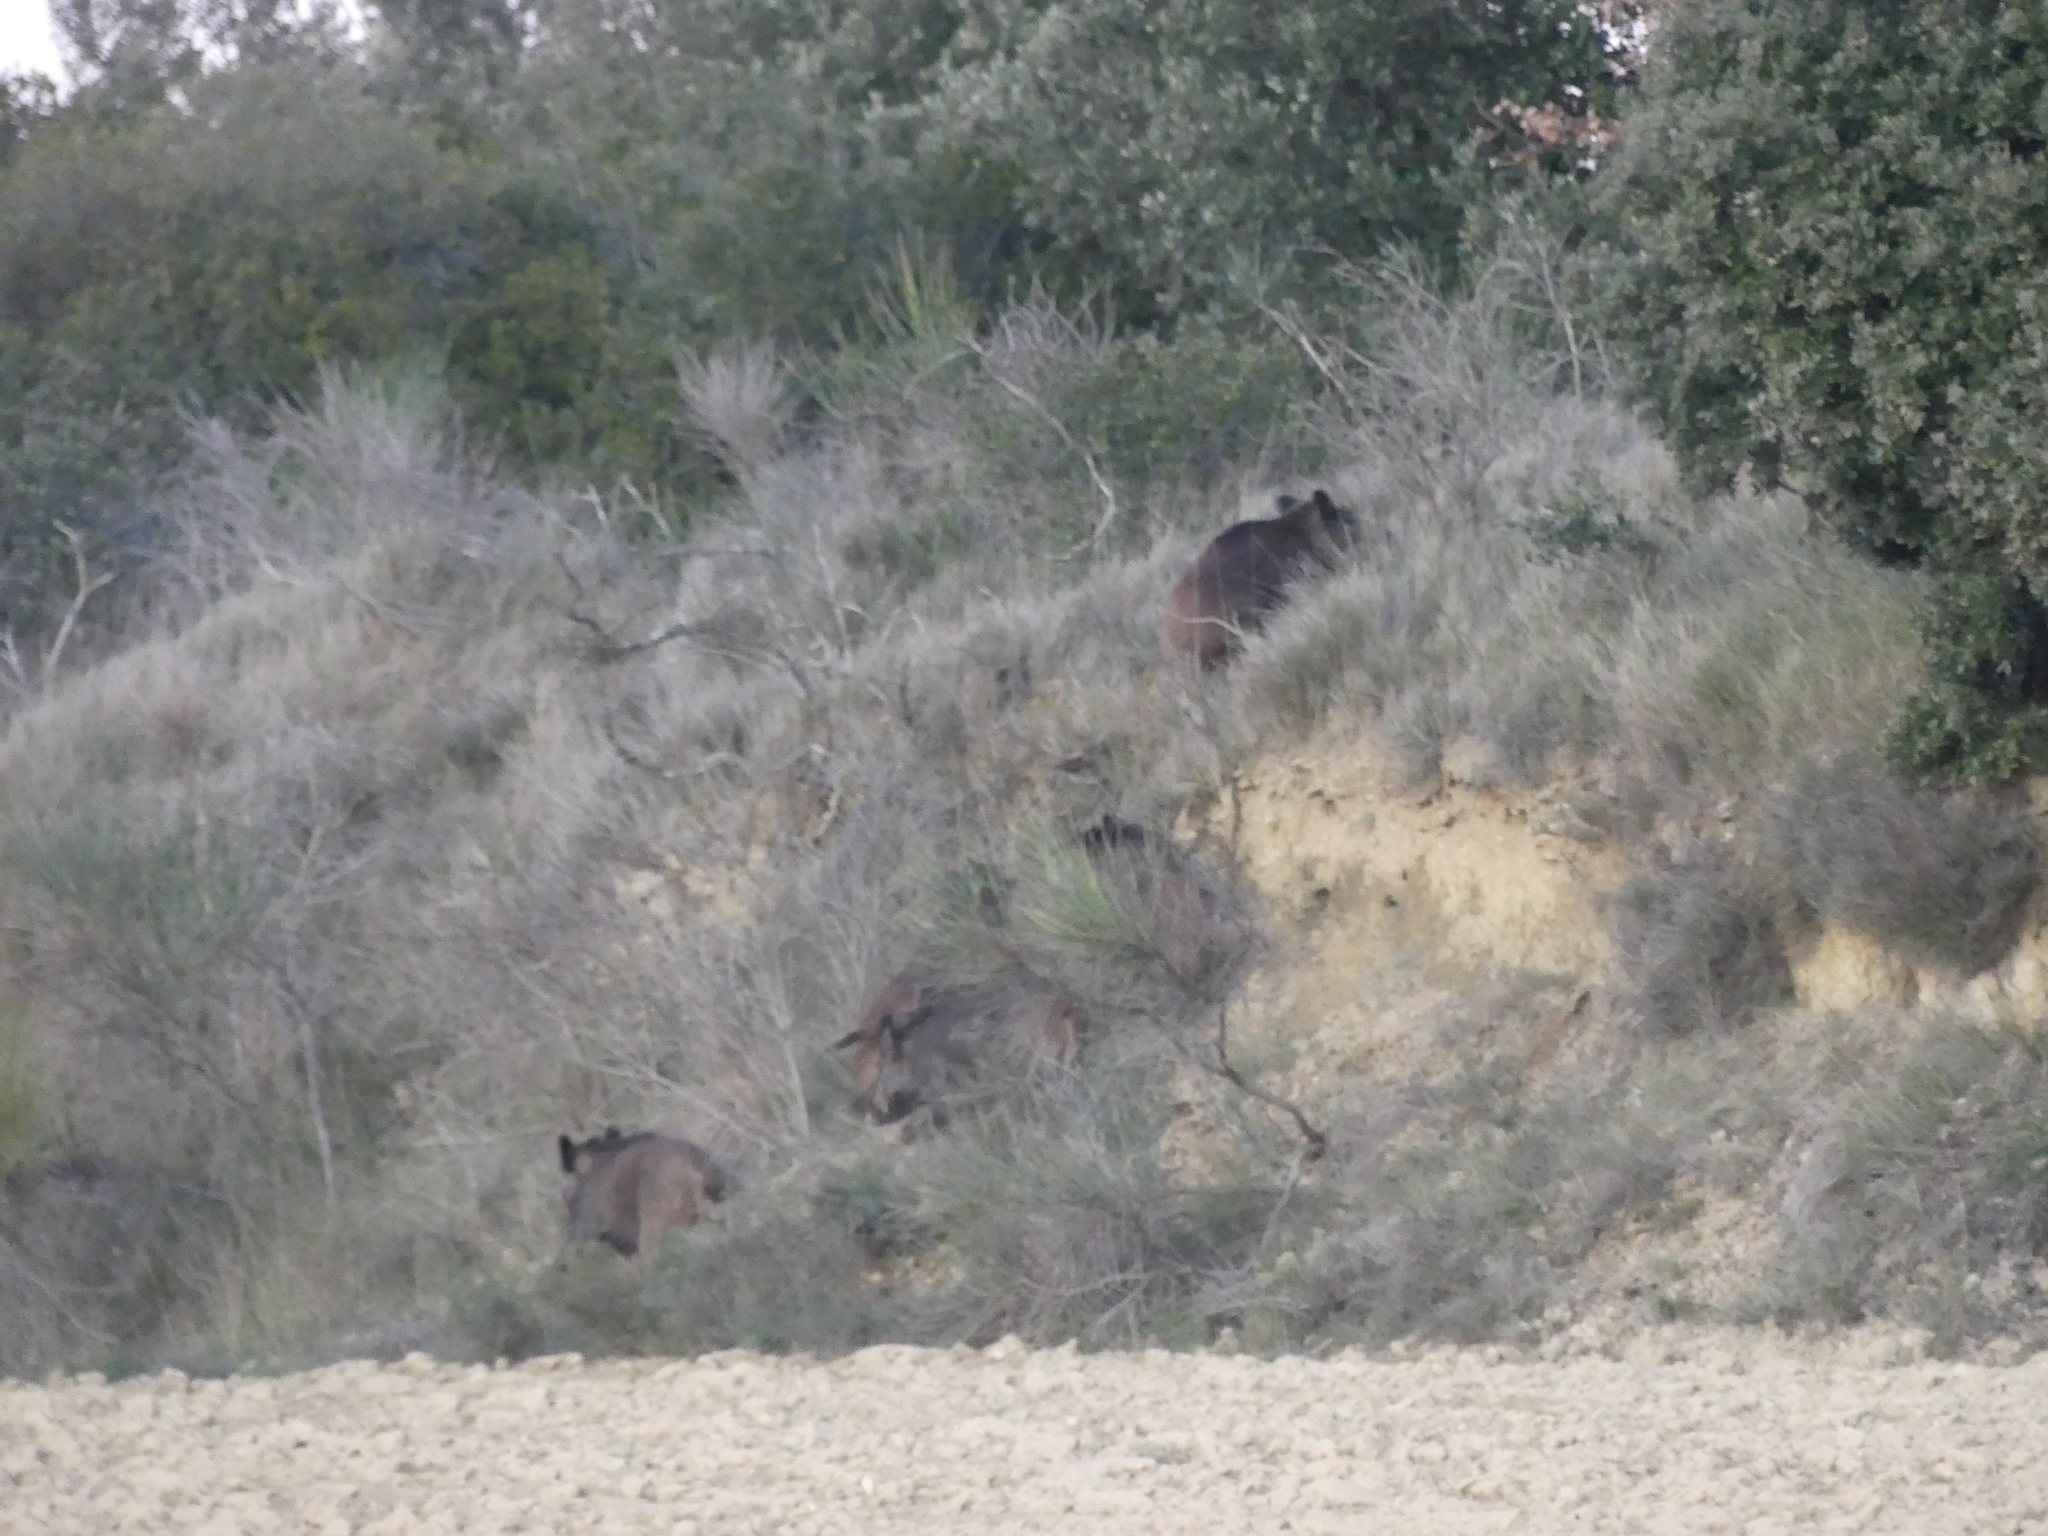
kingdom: Animalia
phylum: Chordata
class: Mammalia
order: Artiodactyla
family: Suidae
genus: Sus
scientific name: Sus scrofa
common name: Wild boar
